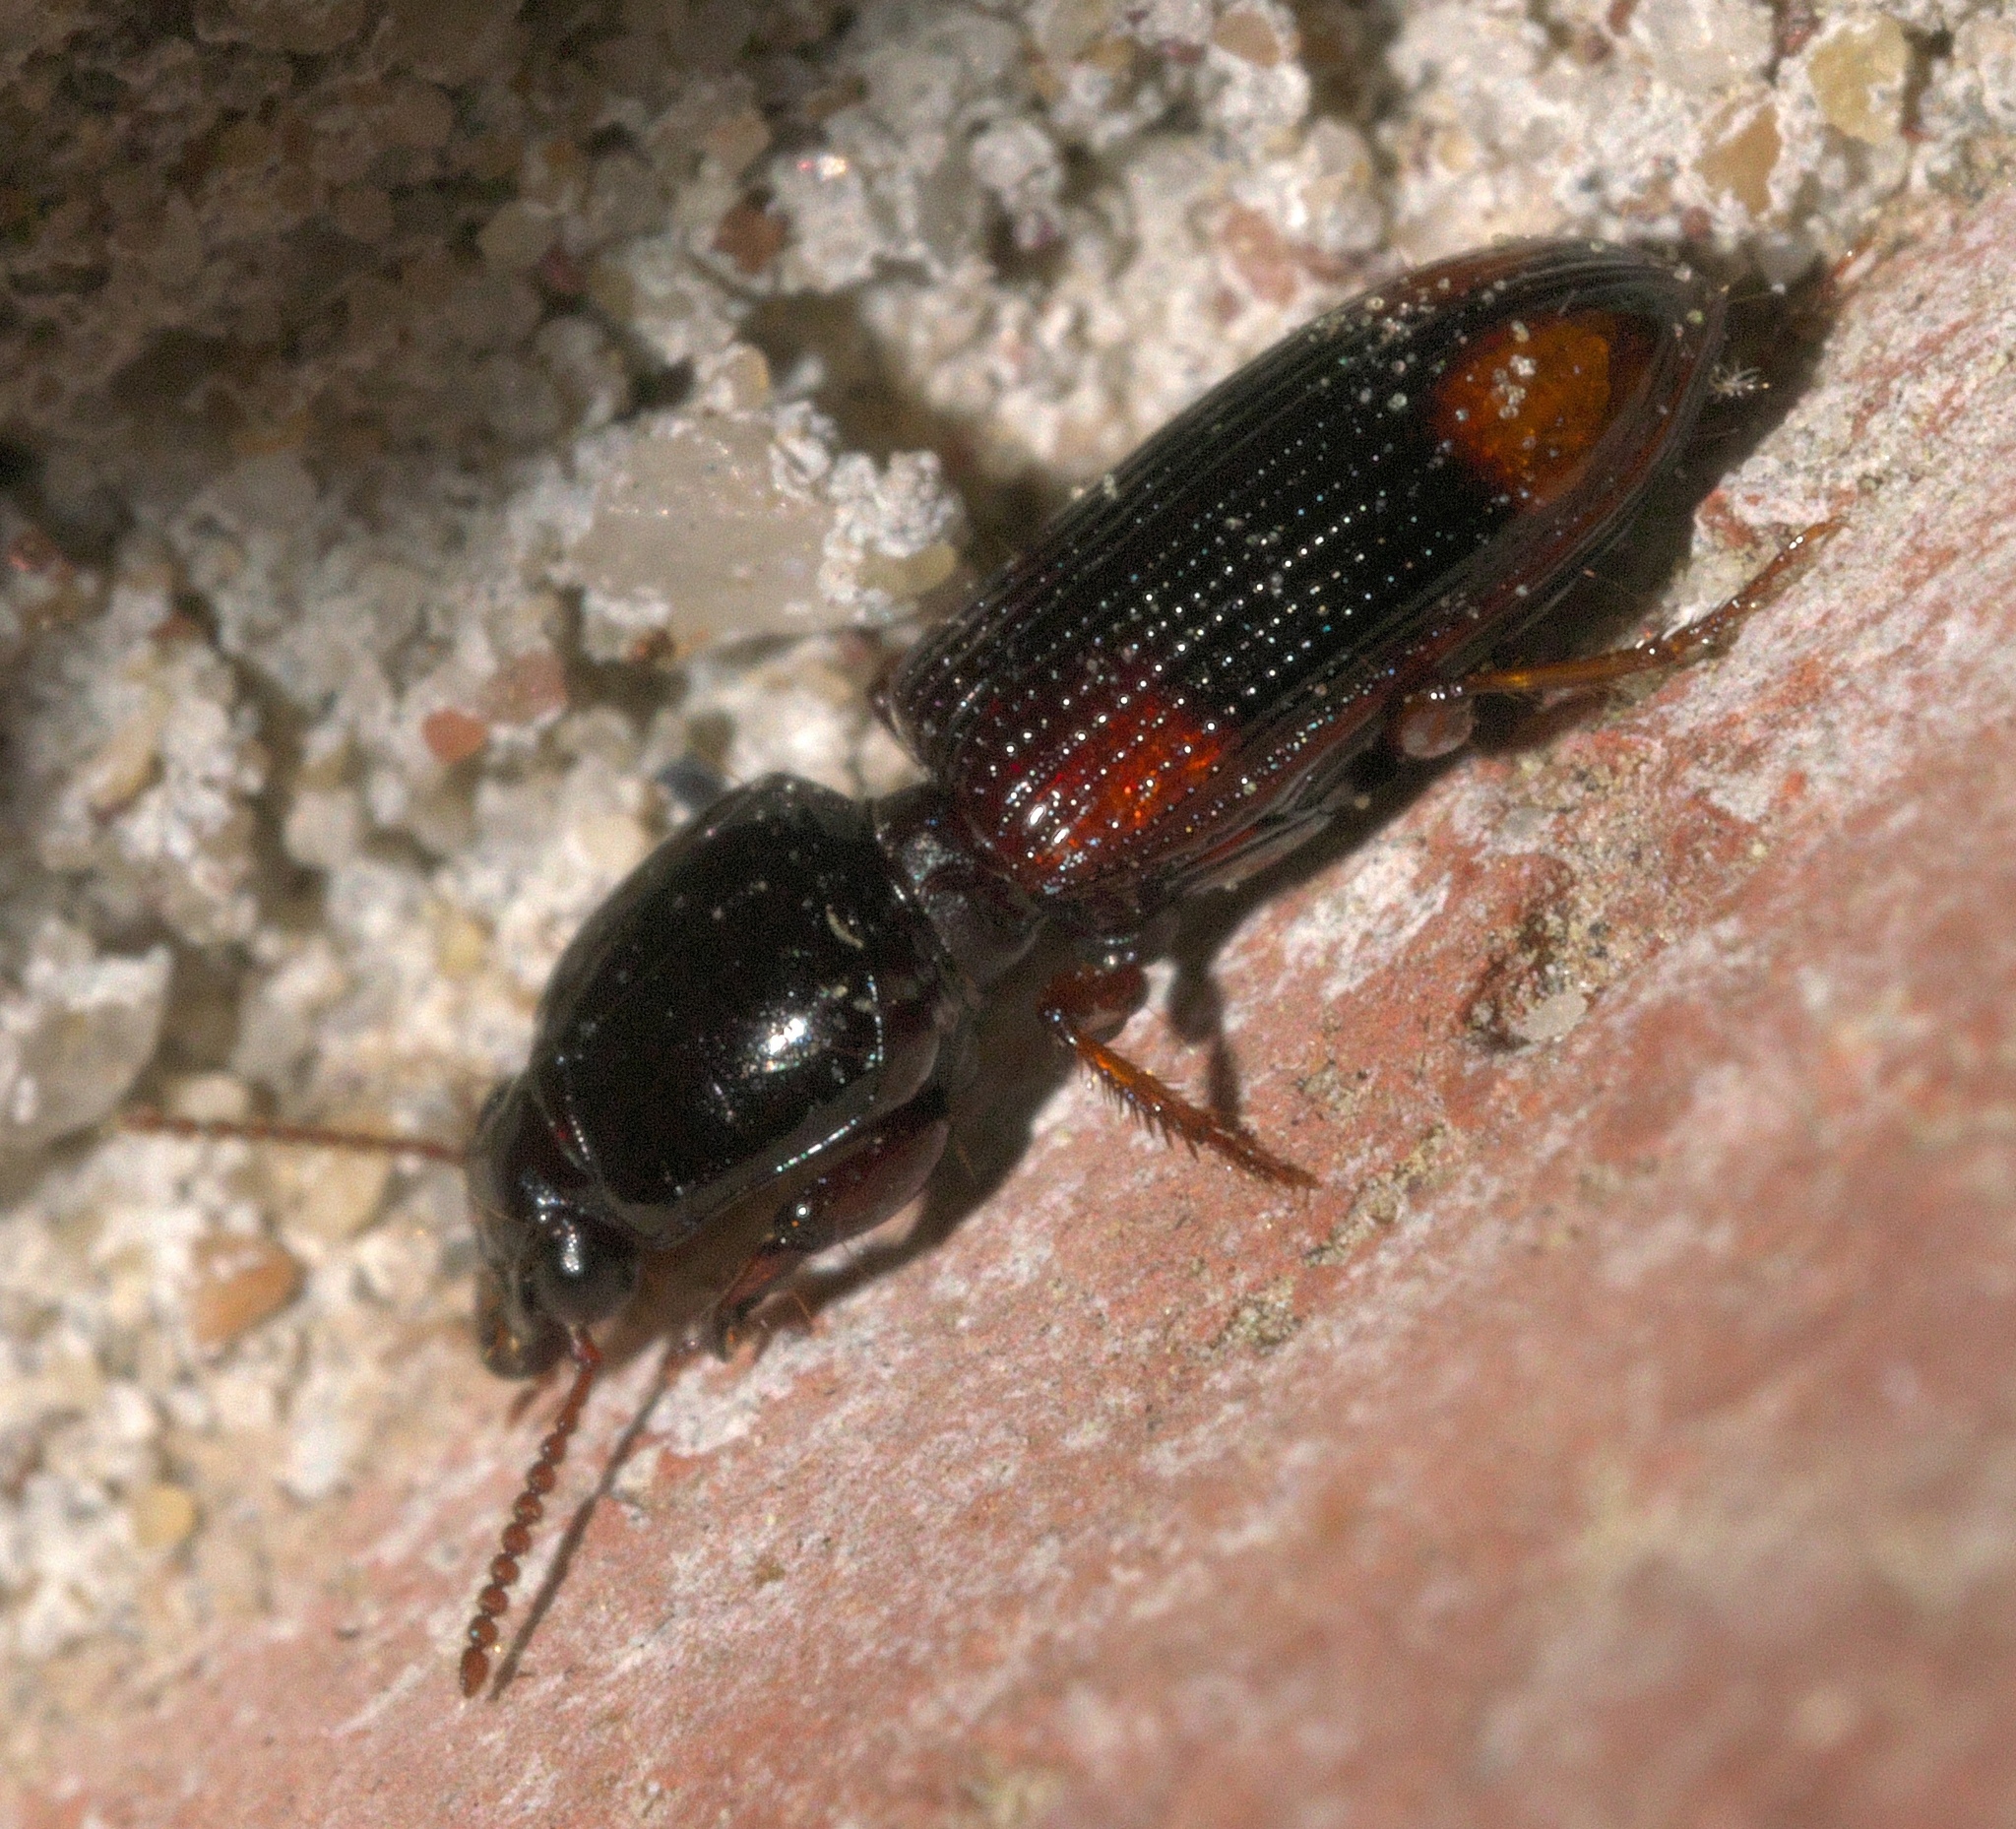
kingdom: Animalia
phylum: Arthropoda
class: Insecta
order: Coleoptera
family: Carabidae
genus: Clivina
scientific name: Clivina bipustulata
